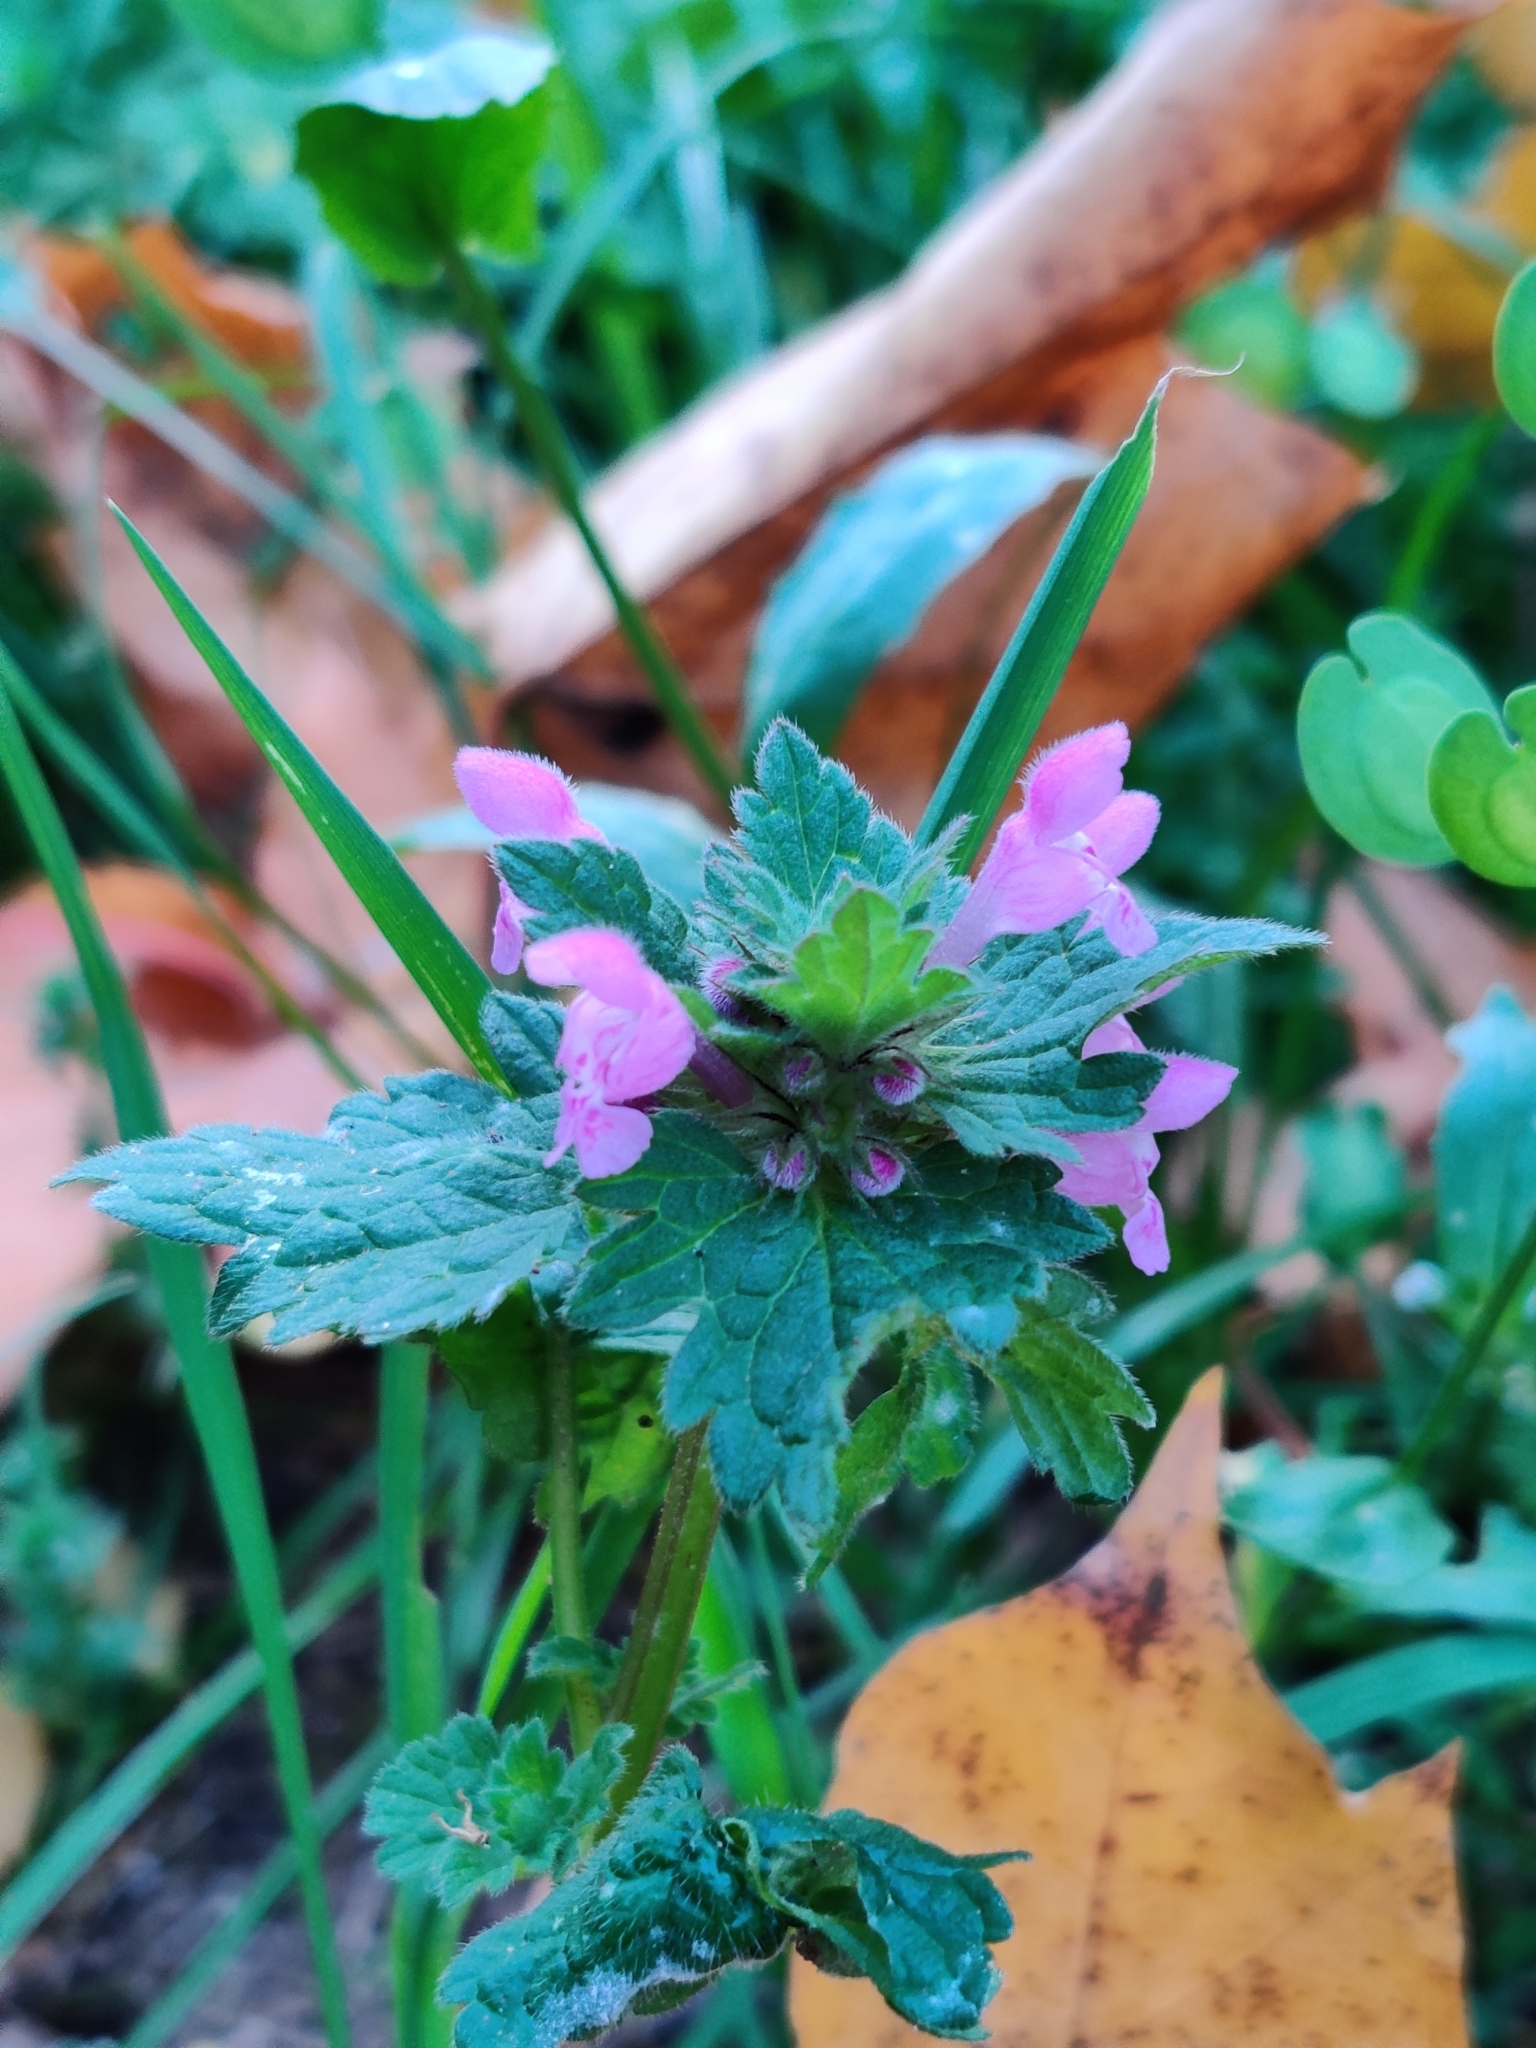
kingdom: Plantae
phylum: Tracheophyta
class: Magnoliopsida
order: Lamiales
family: Lamiaceae
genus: Lamium
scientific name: Lamium purpureum
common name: Red dead-nettle
